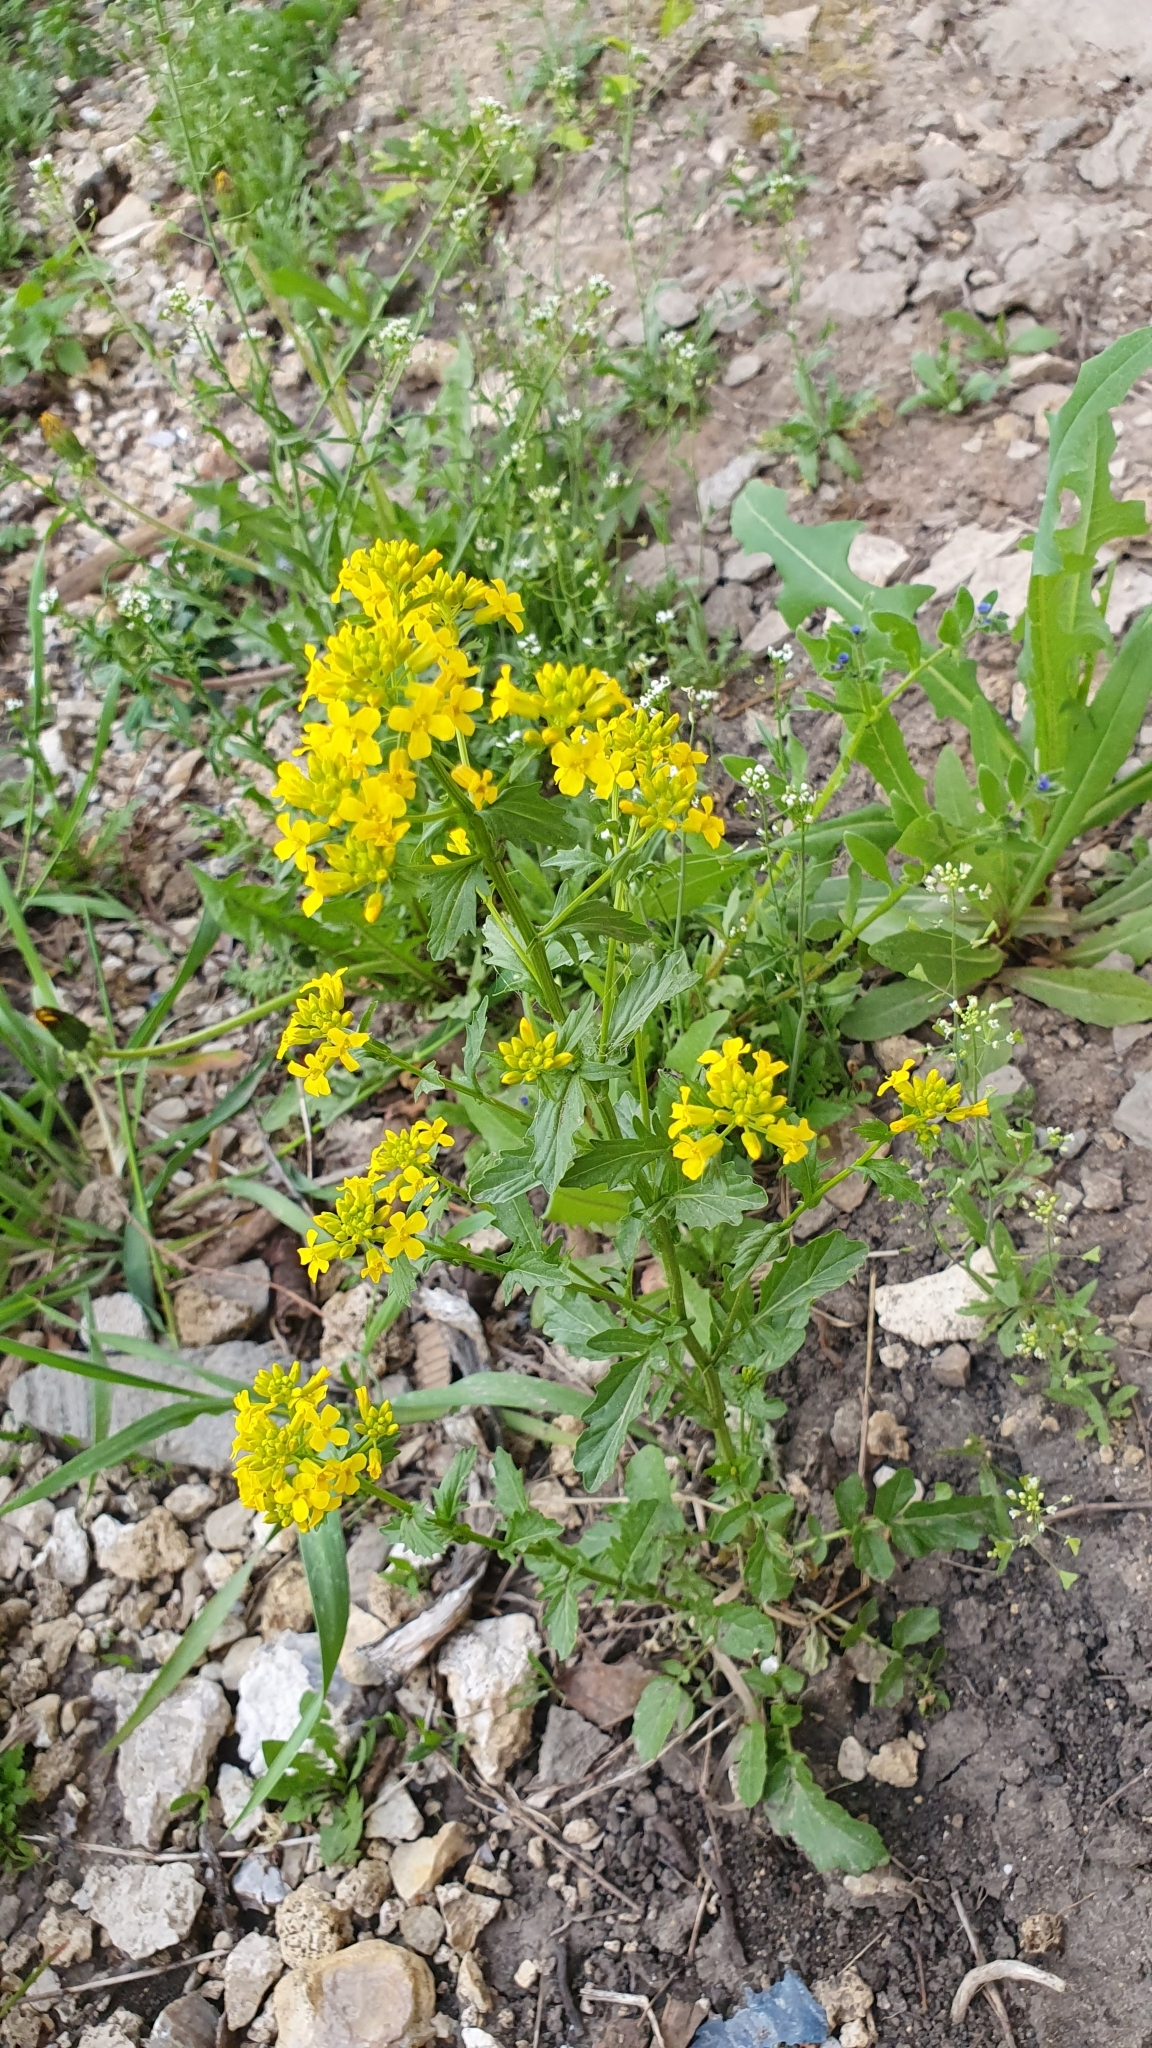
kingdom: Plantae
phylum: Tracheophyta
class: Magnoliopsida
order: Brassicales
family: Brassicaceae
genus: Barbarea
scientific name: Barbarea vulgaris
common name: Cressy-greens
